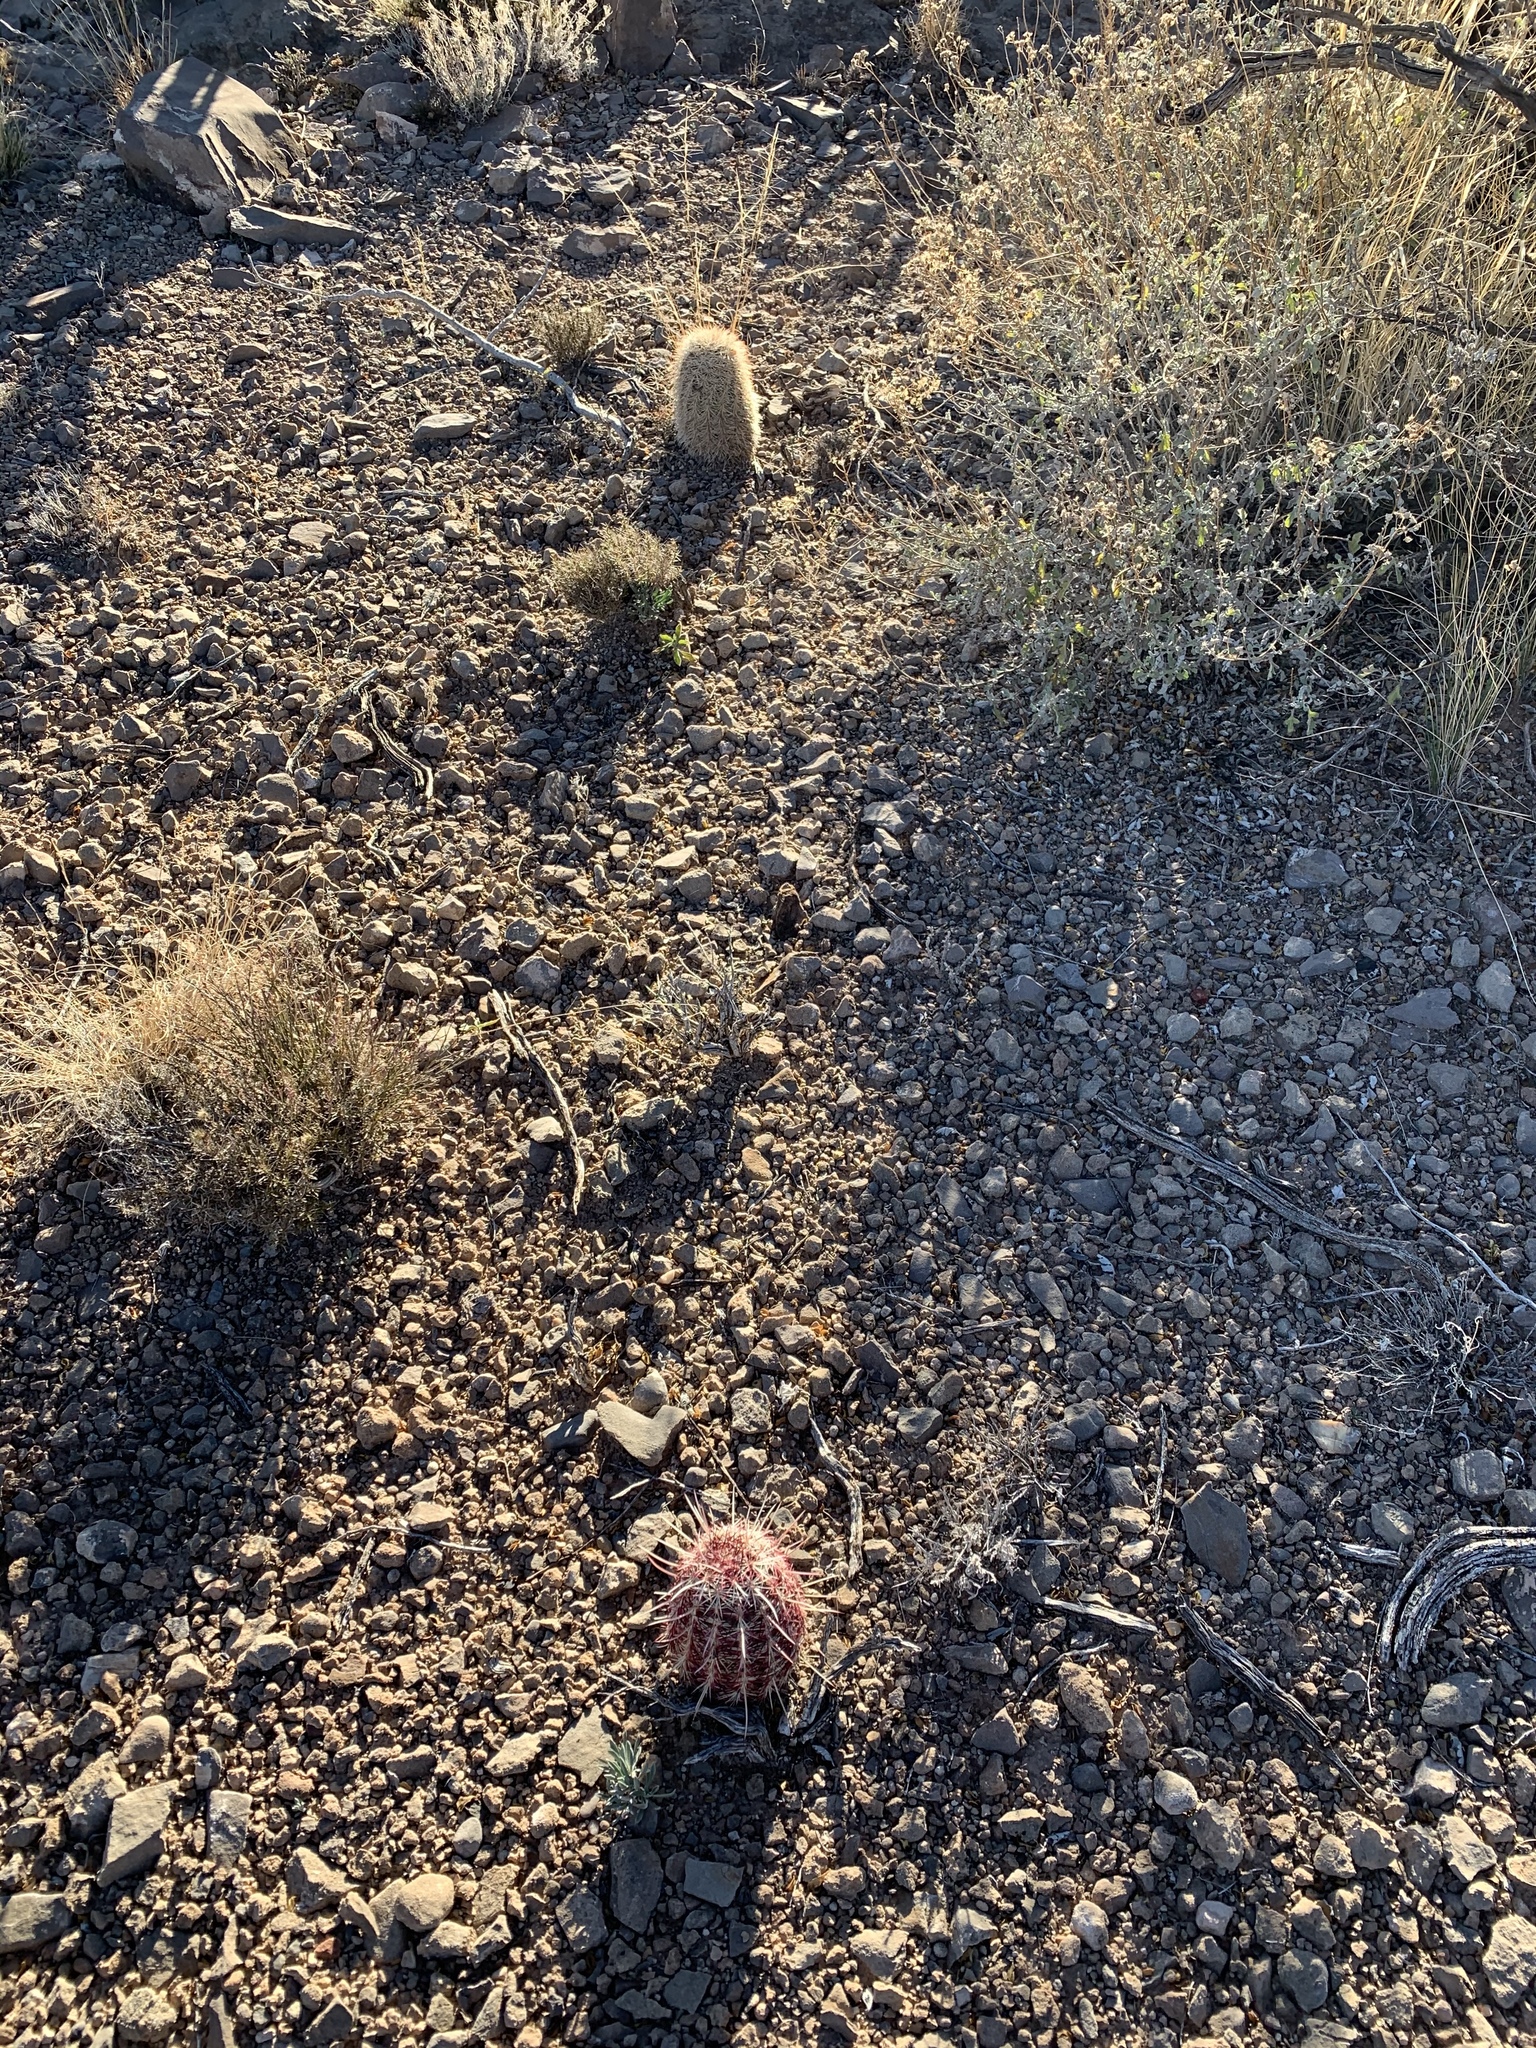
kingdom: Plantae
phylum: Tracheophyta
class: Magnoliopsida
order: Caryophyllales
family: Cactaceae
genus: Echinocereus
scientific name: Echinocereus dasyacanthus
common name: Spiny hedgehog cactus
